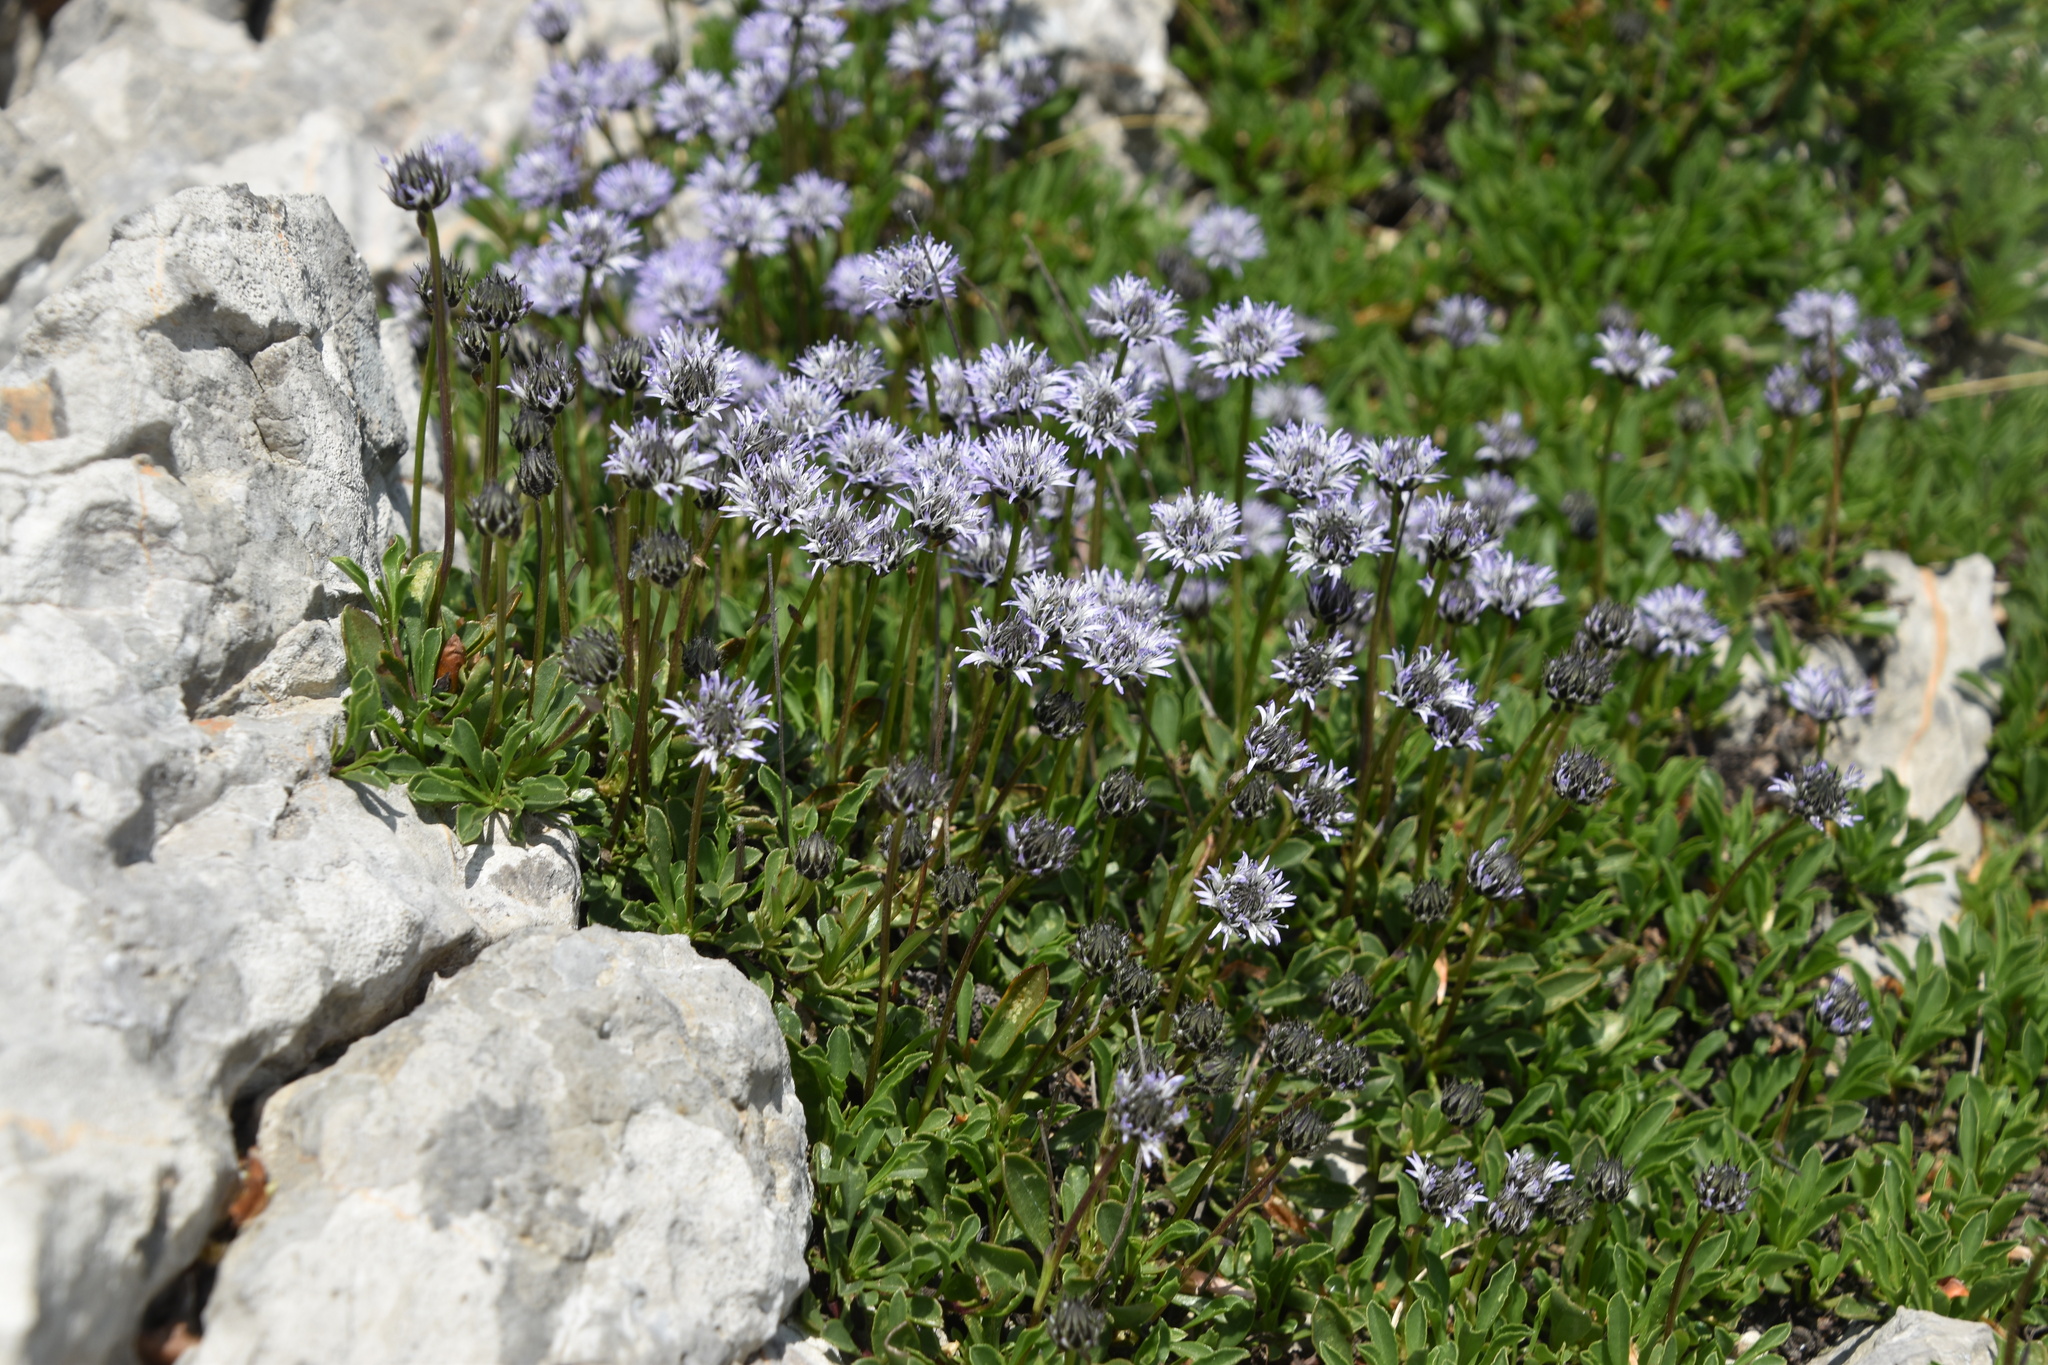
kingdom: Plantae
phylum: Tracheophyta
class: Magnoliopsida
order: Lamiales
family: Plantaginaceae
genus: Globularia
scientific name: Globularia cordifolia
